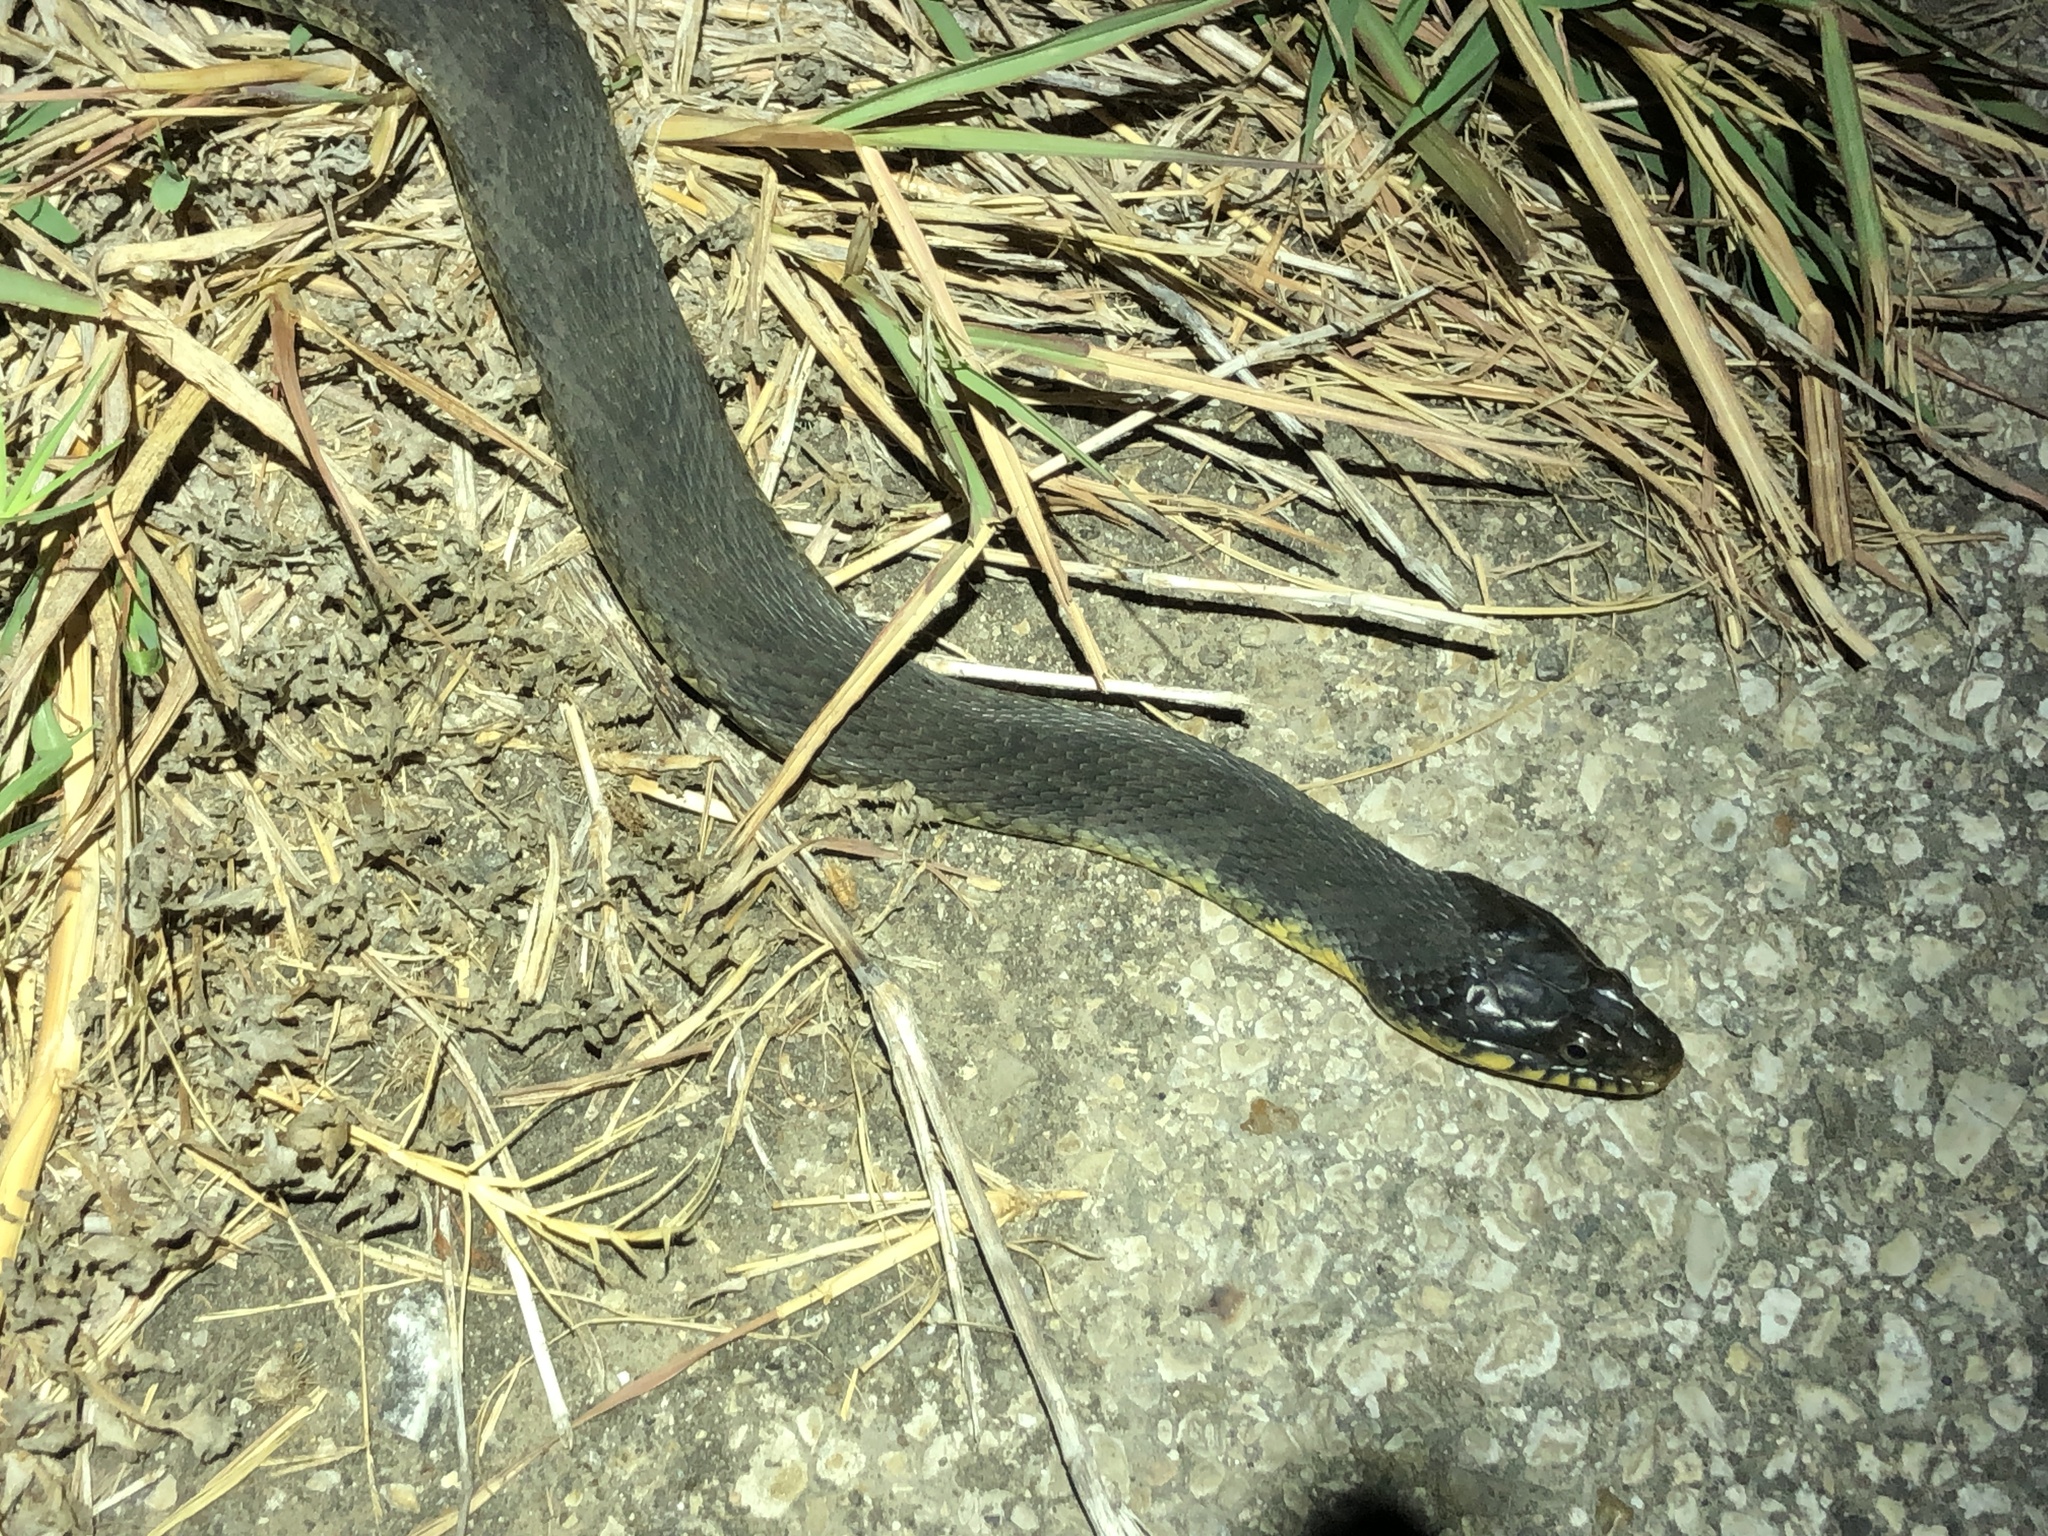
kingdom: Animalia
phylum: Chordata
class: Squamata
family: Colubridae
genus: Nerodia
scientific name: Nerodia erythrogaster
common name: Plainbelly water snake
